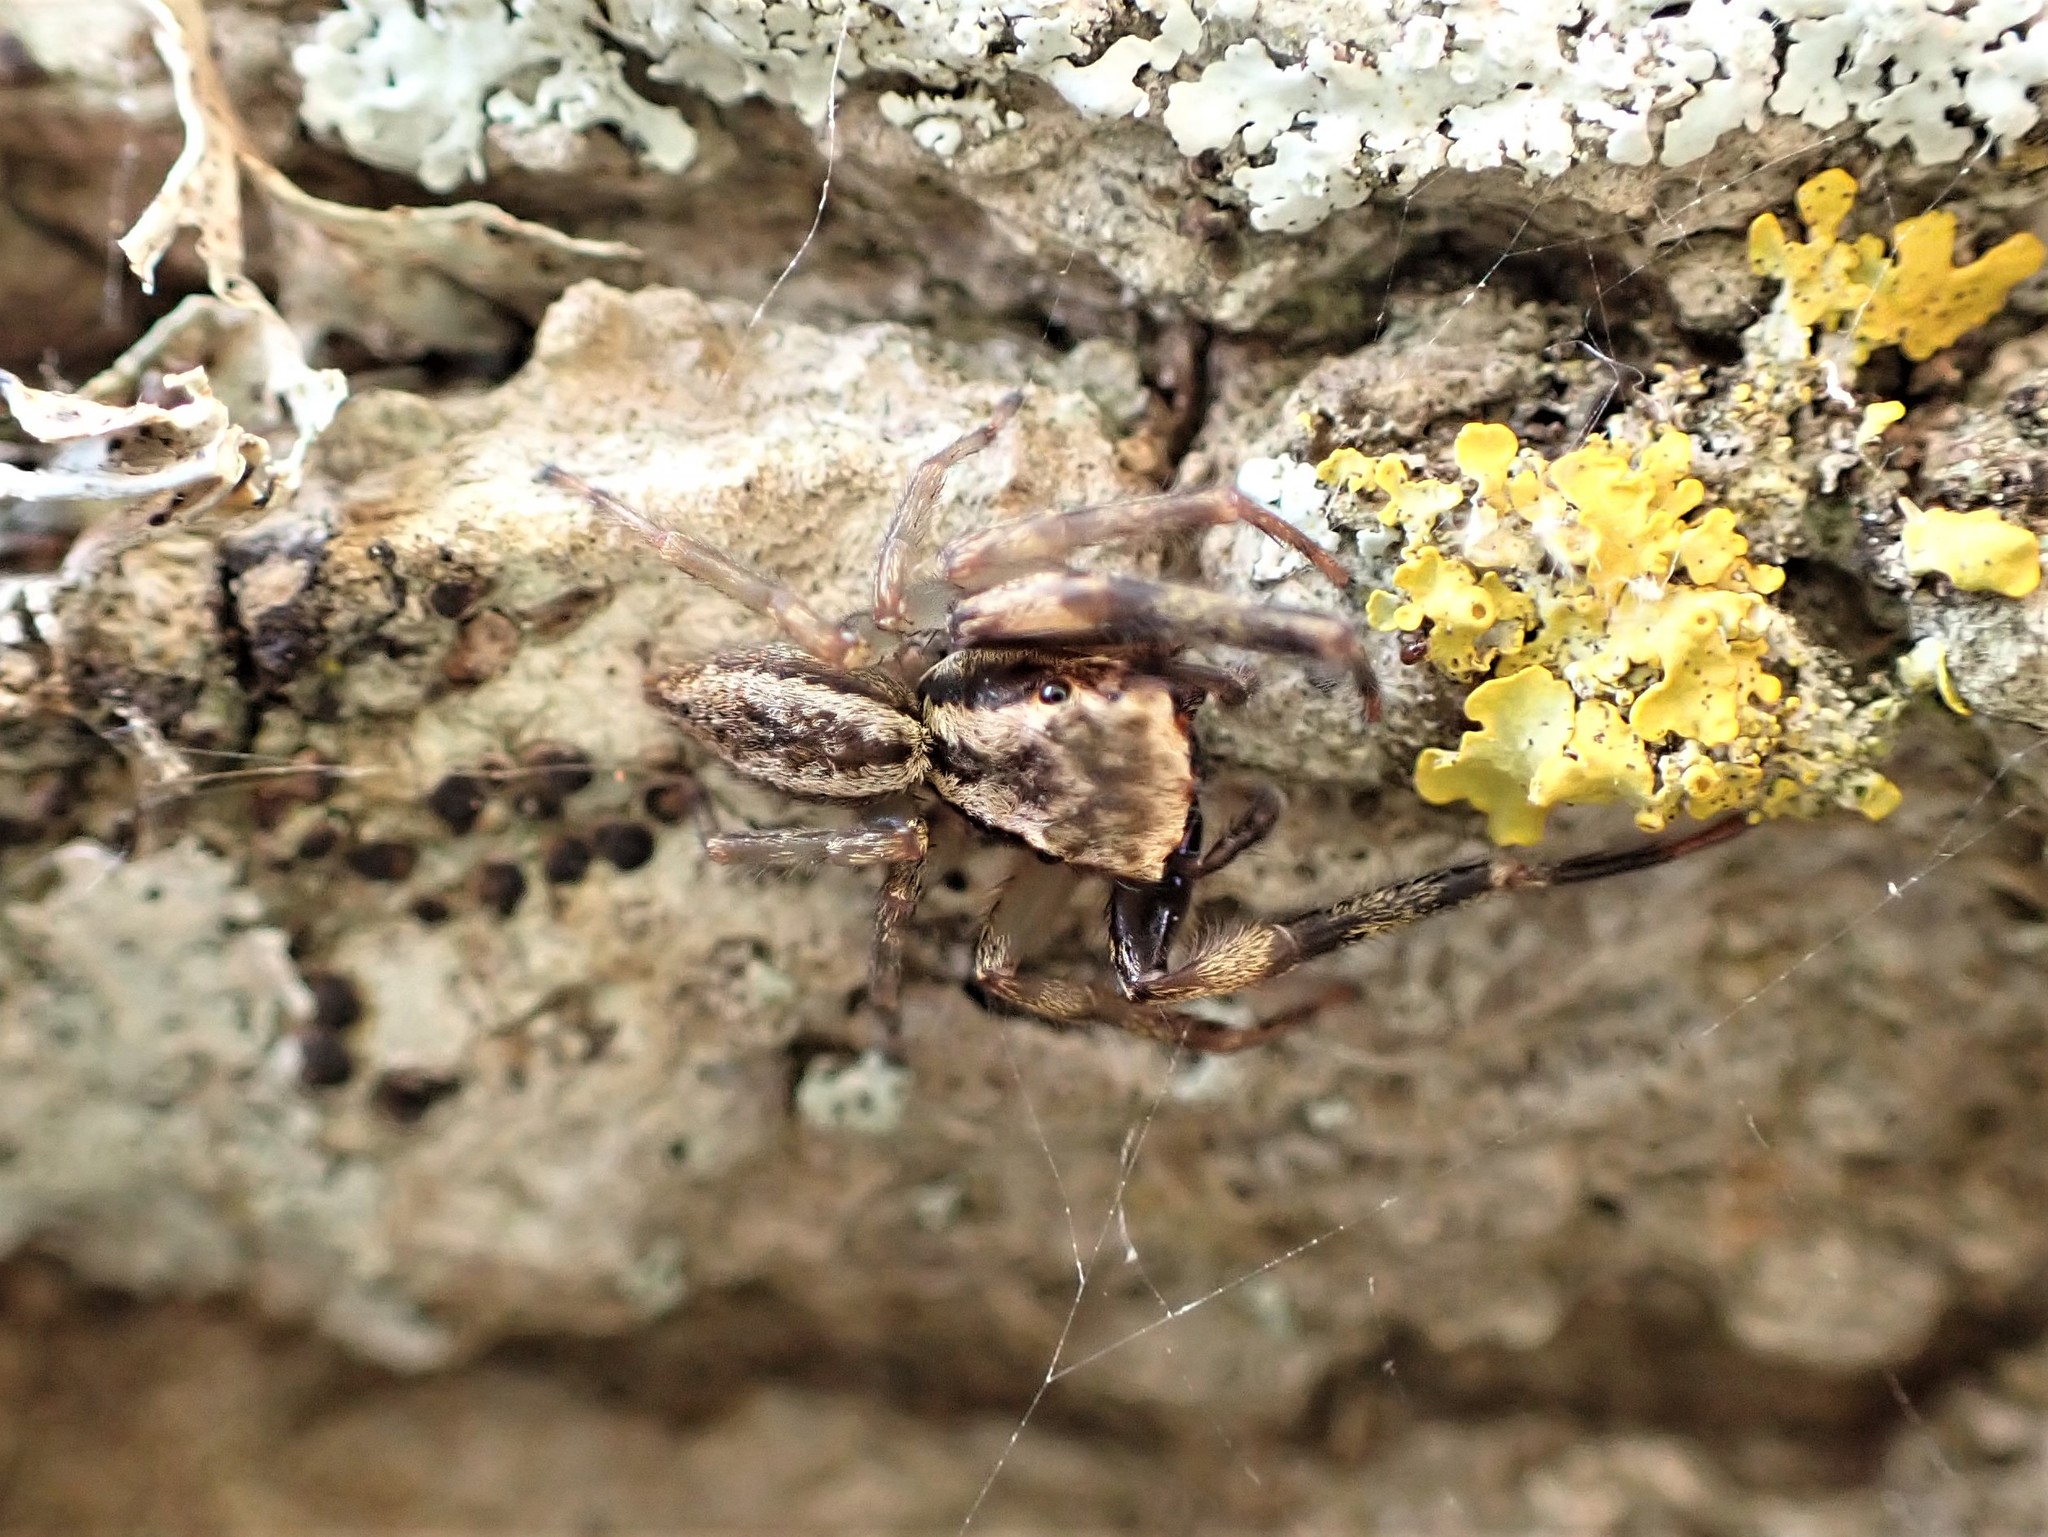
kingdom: Animalia
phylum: Arthropoda
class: Arachnida
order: Araneae
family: Salticidae
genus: Trite
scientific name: Trite auricoma
